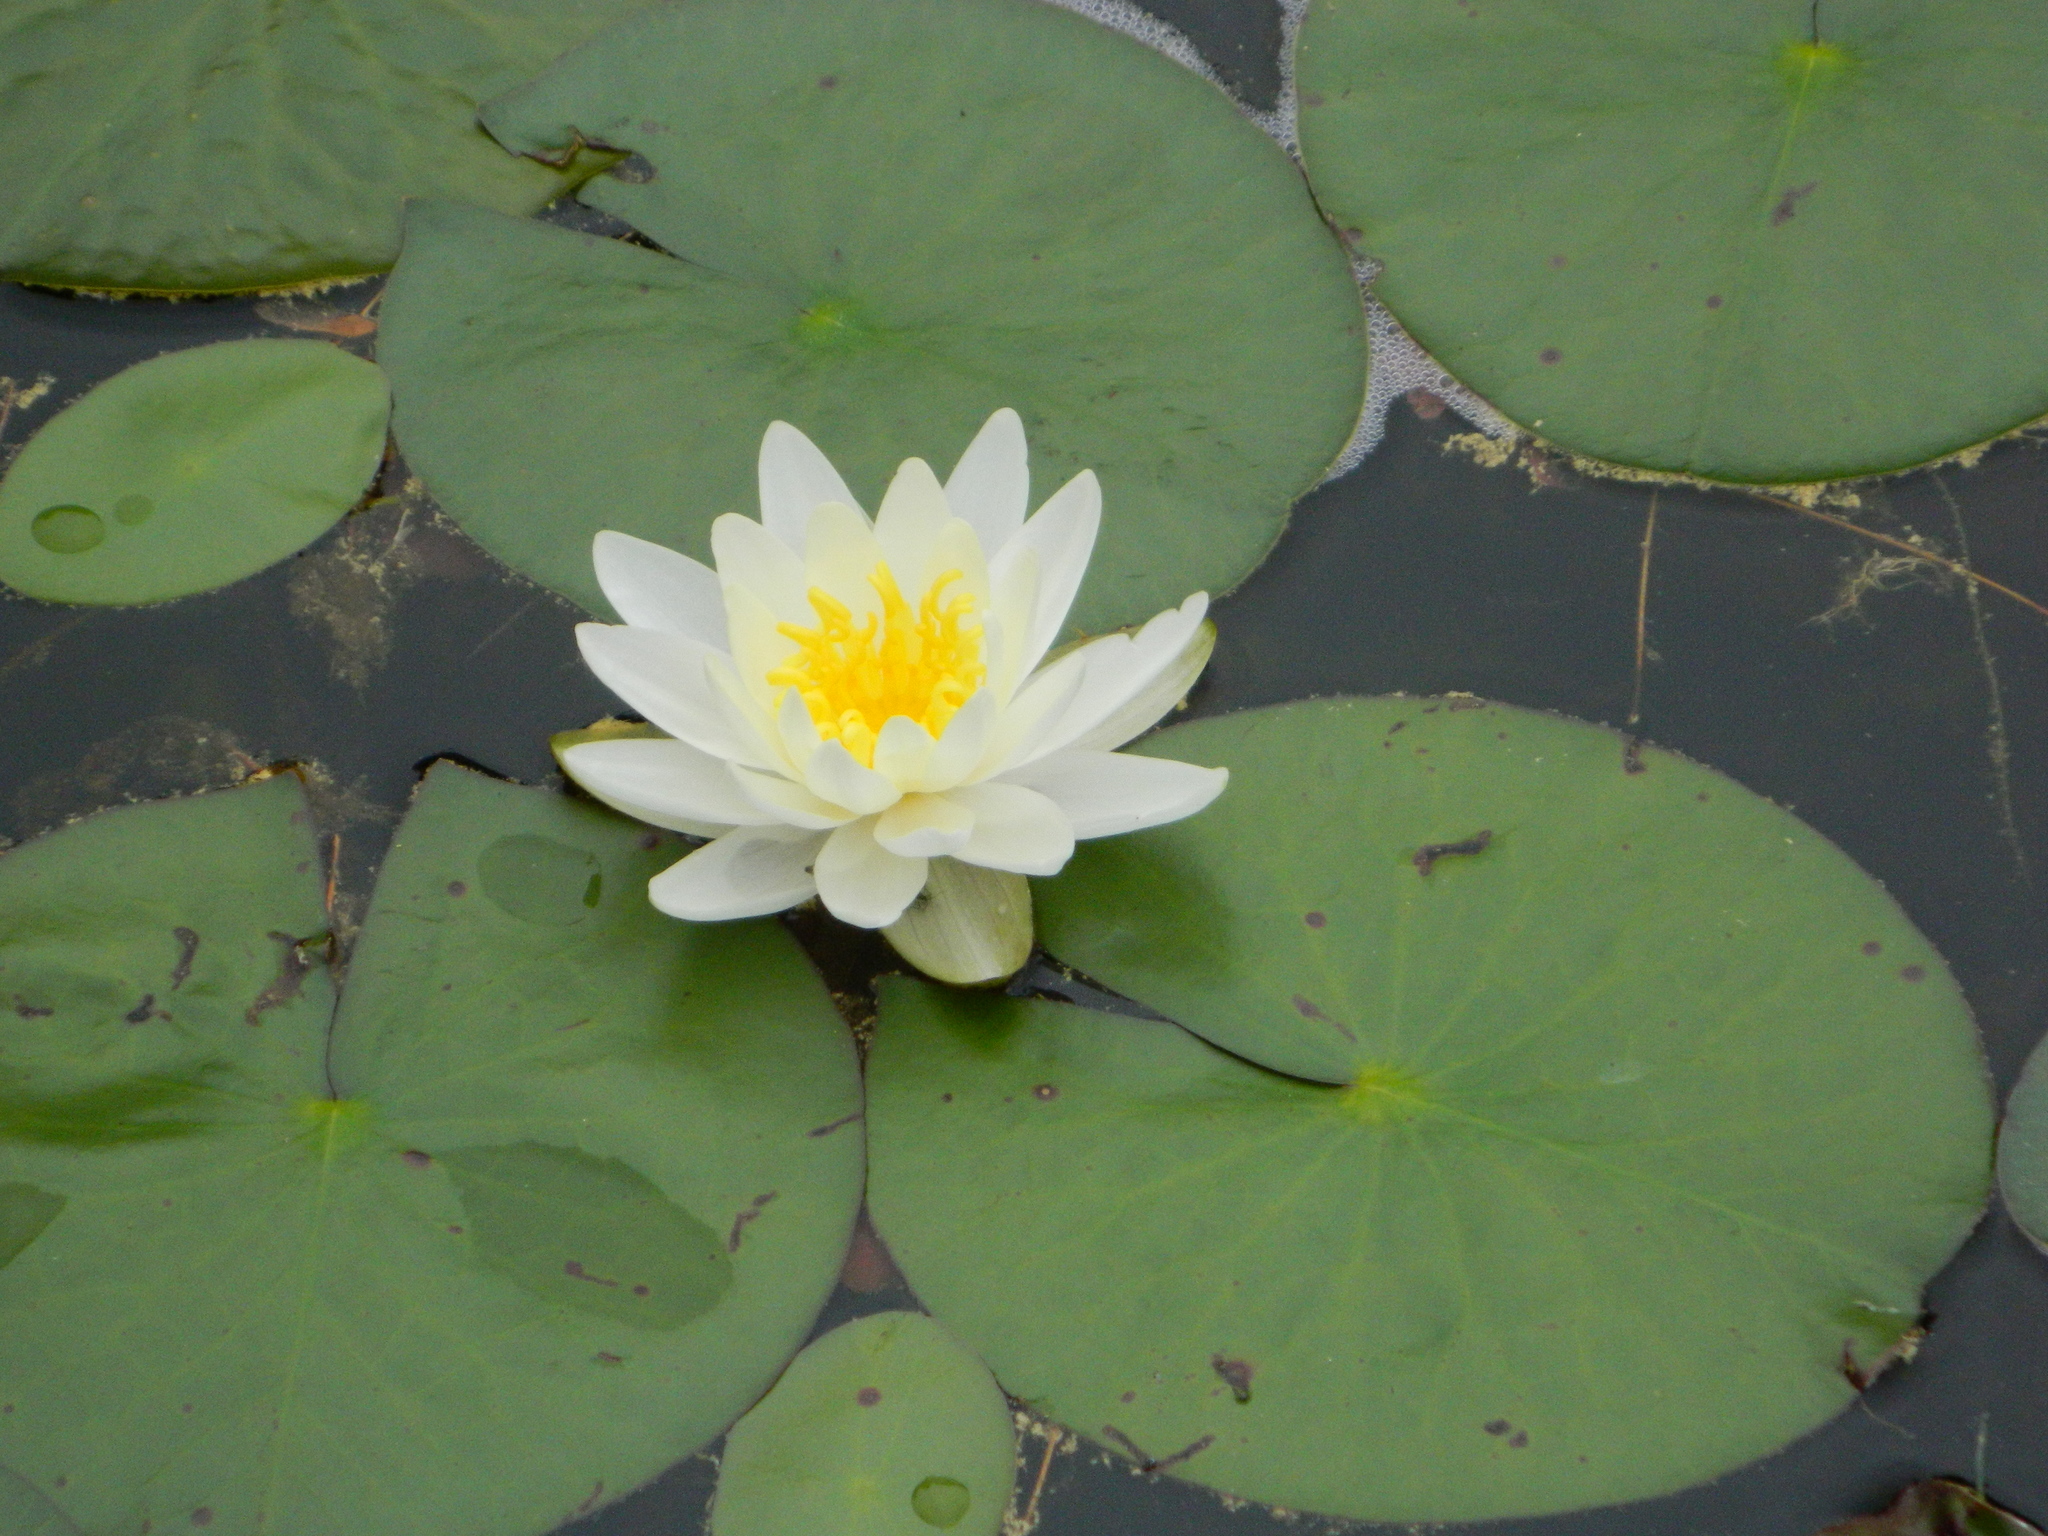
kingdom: Plantae
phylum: Tracheophyta
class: Magnoliopsida
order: Nymphaeales
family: Nymphaeaceae
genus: Nymphaea
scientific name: Nymphaea odorata
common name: Fragrant water-lily
